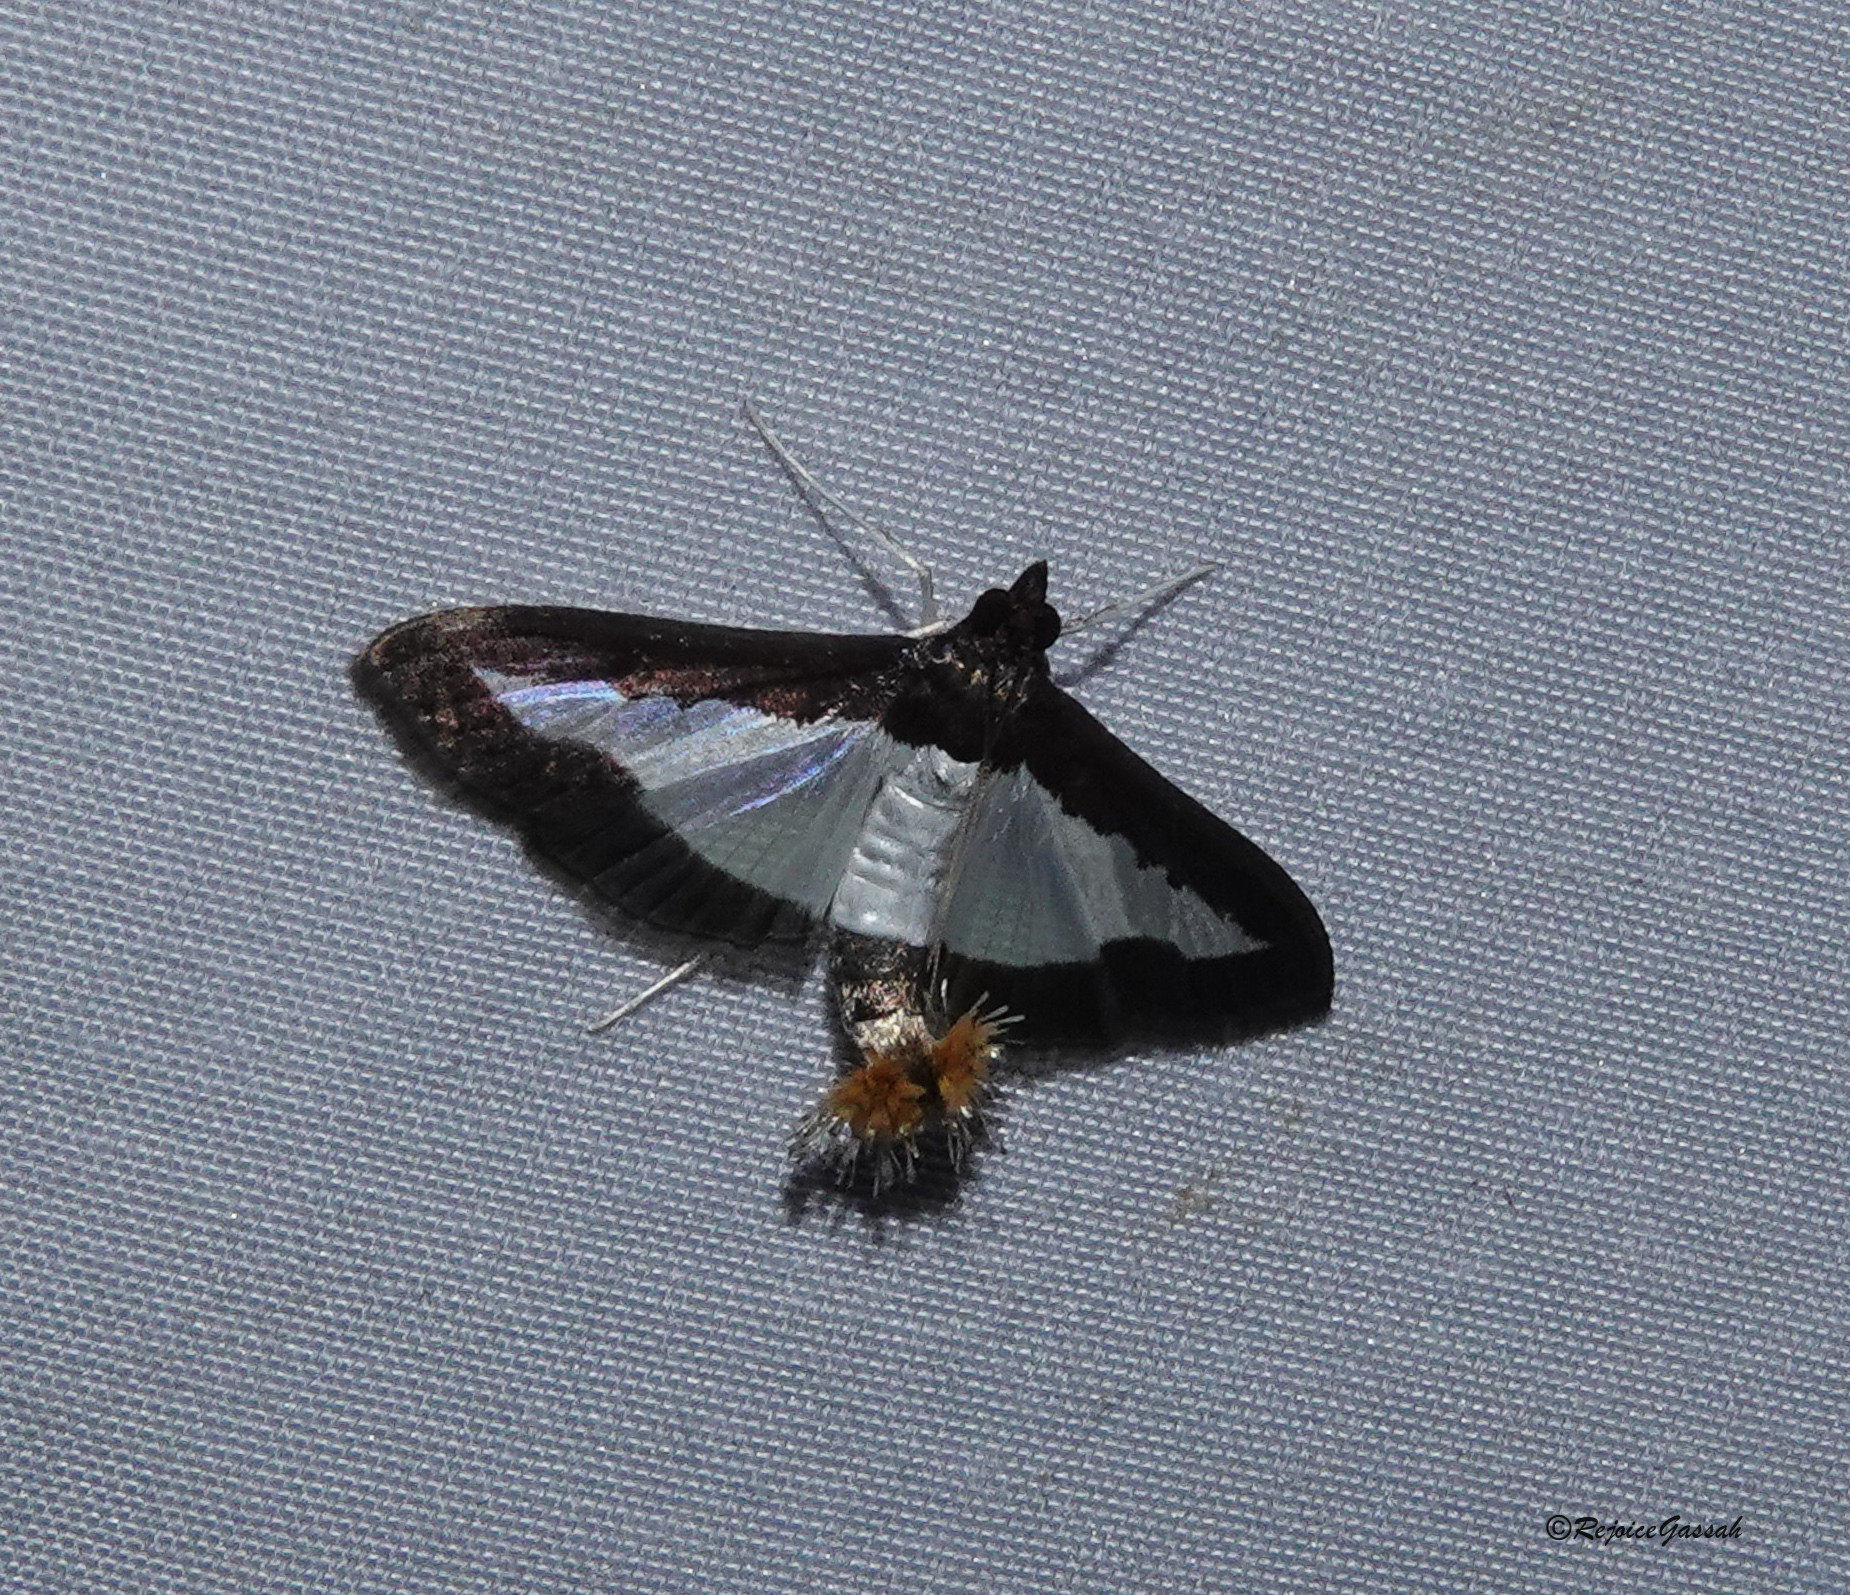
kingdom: Animalia
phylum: Arthropoda
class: Insecta
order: Lepidoptera
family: Crambidae
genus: Diaphania
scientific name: Diaphania indica
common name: Cucumber moth
